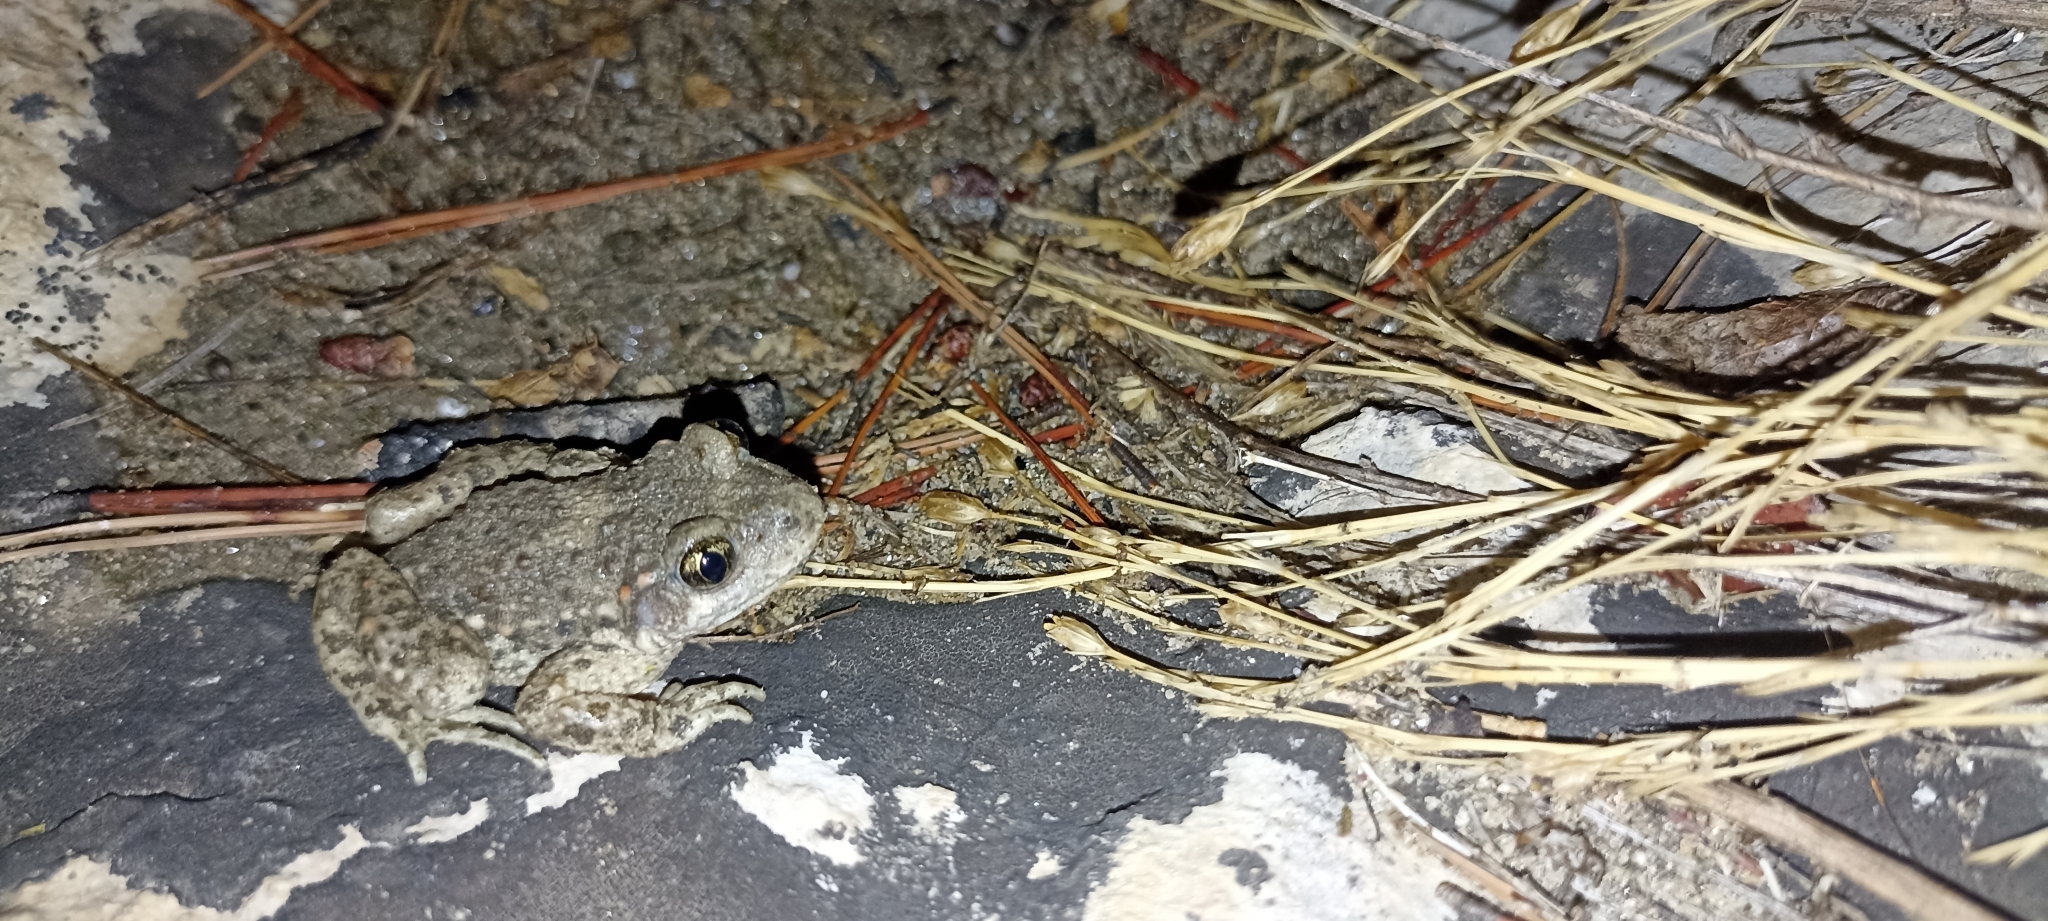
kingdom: Animalia
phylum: Chordata
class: Amphibia
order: Anura
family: Alytidae
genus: Alytes
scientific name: Alytes obstetricans
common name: Midwife toad
